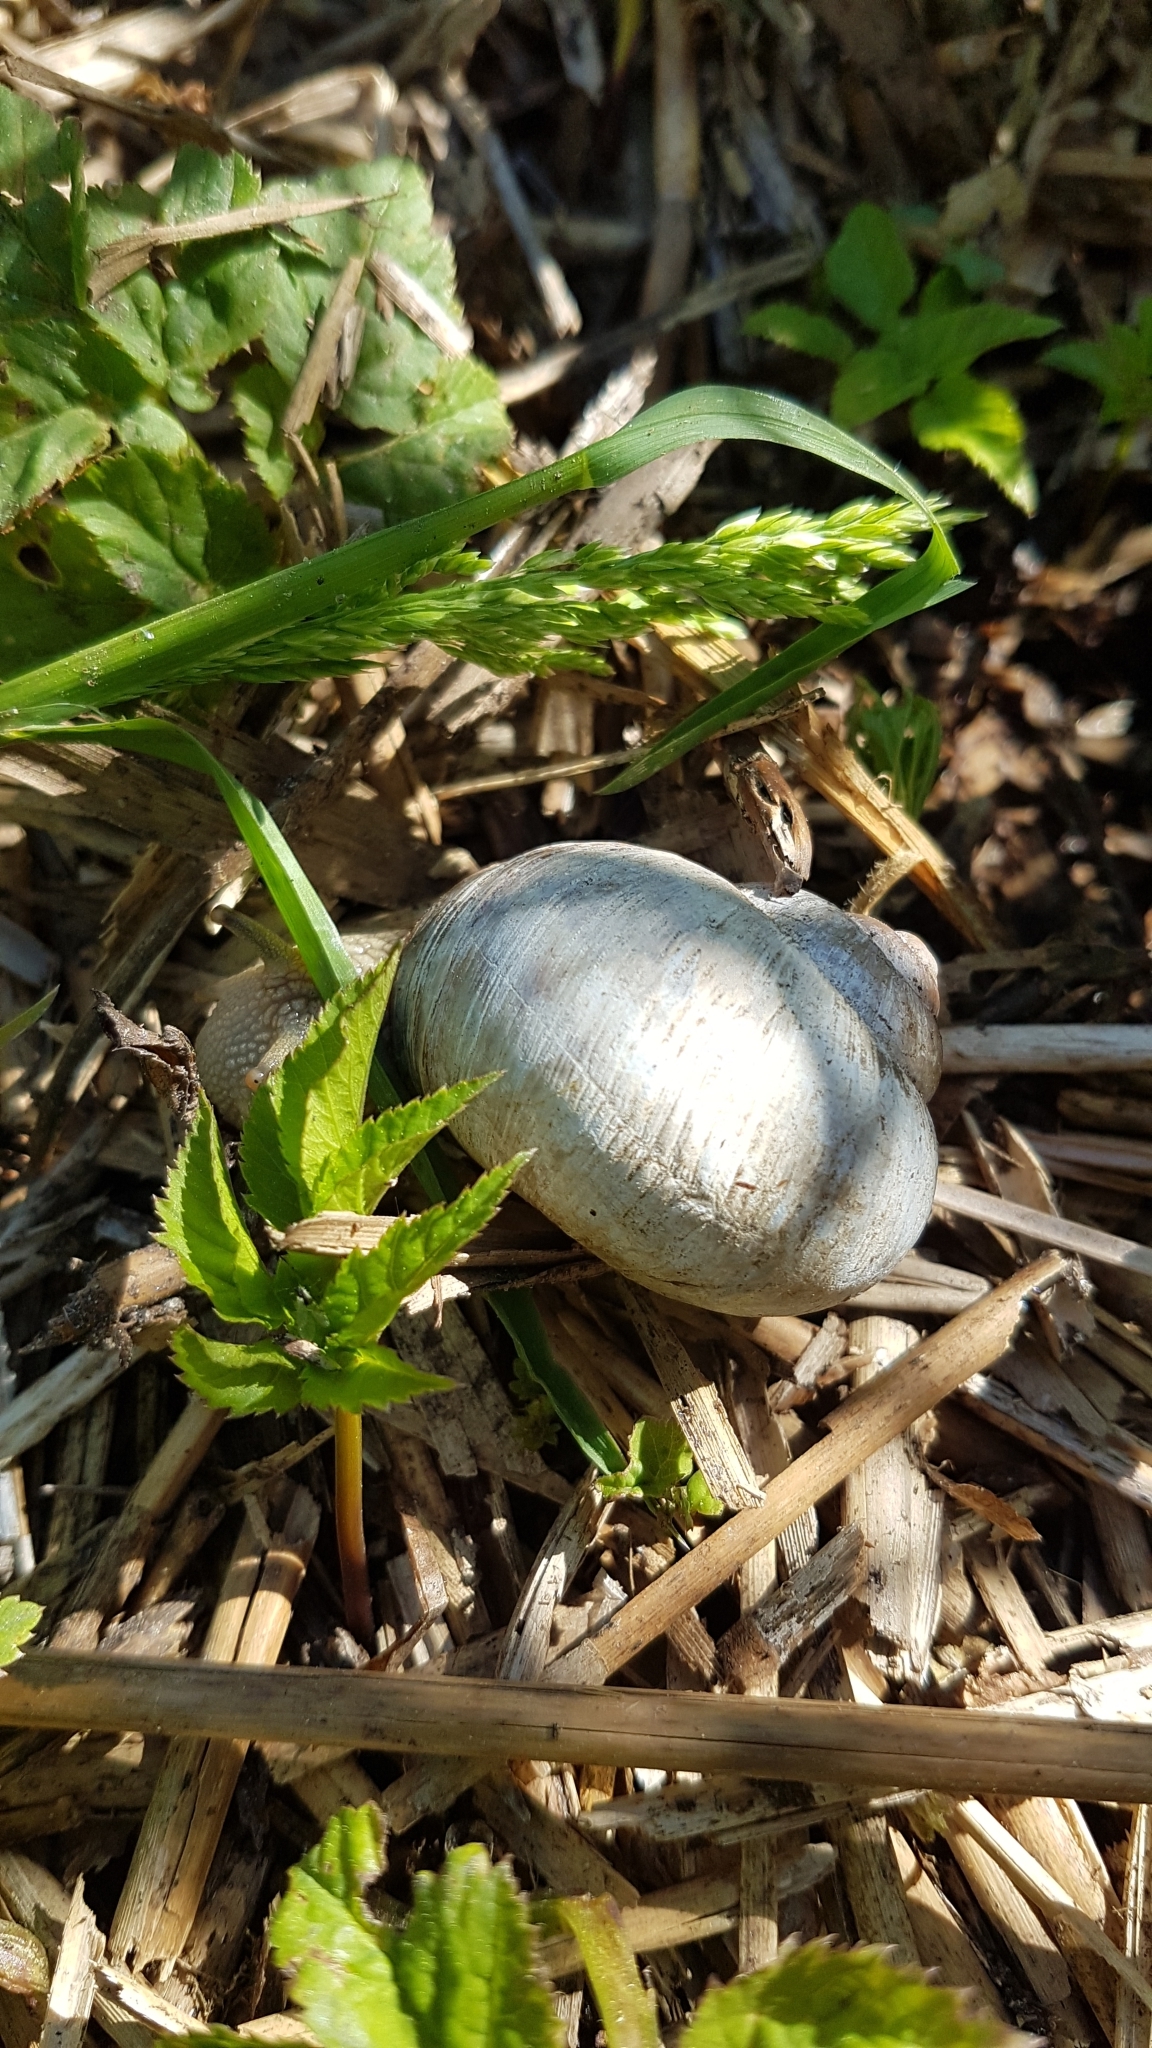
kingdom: Animalia
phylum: Mollusca
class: Gastropoda
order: Stylommatophora
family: Helicidae
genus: Helix
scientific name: Helix pomatia
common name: Roman snail
